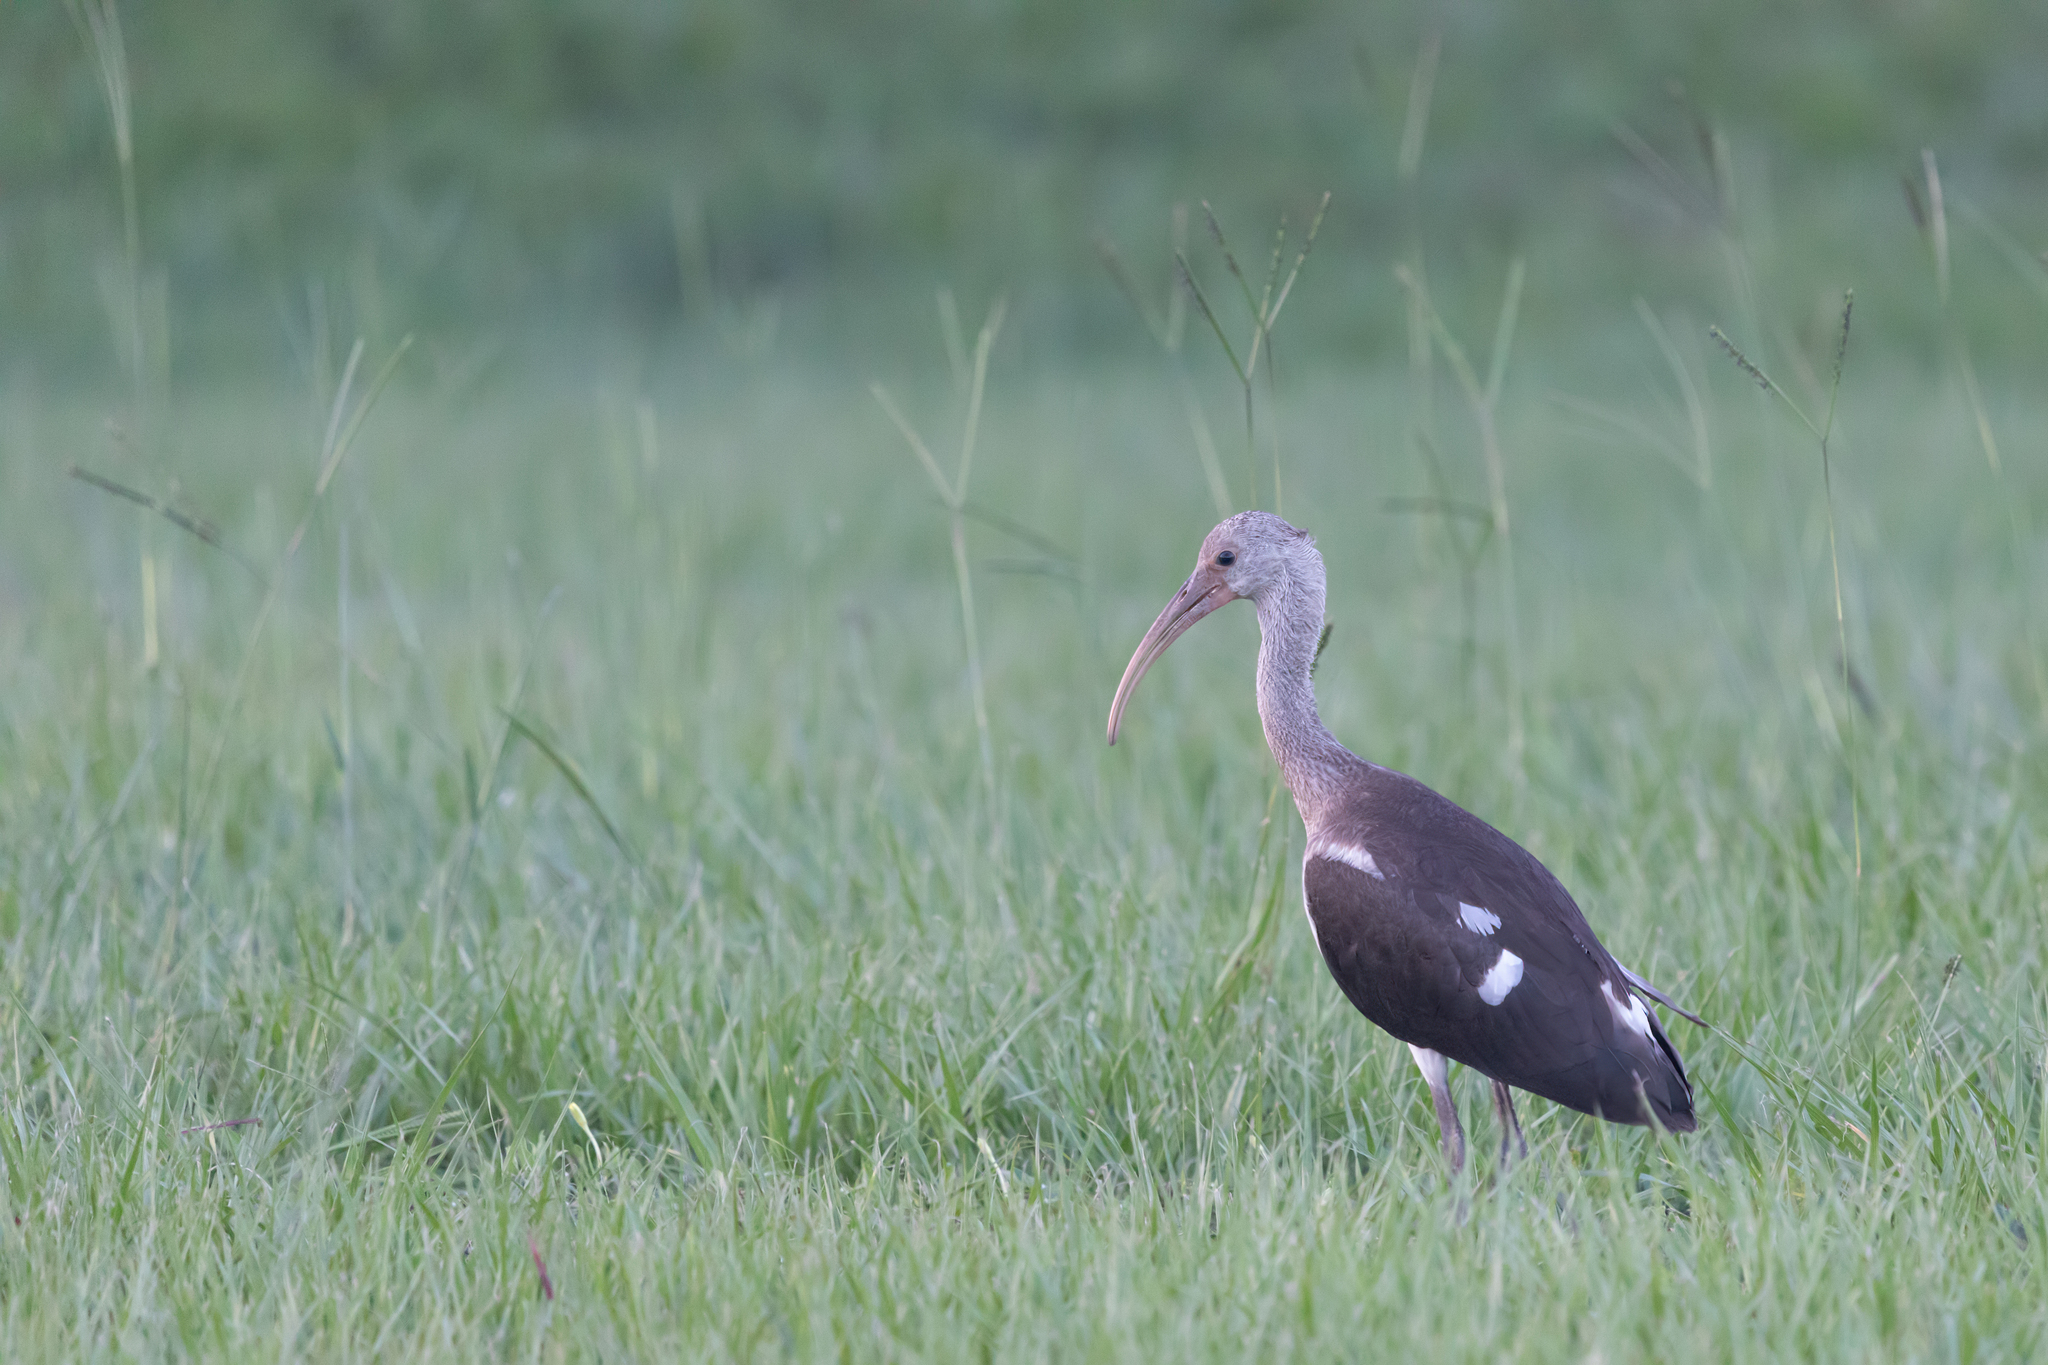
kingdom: Animalia
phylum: Chordata
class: Aves
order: Pelecaniformes
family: Threskiornithidae
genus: Eudocimus
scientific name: Eudocimus albus
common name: White ibis
